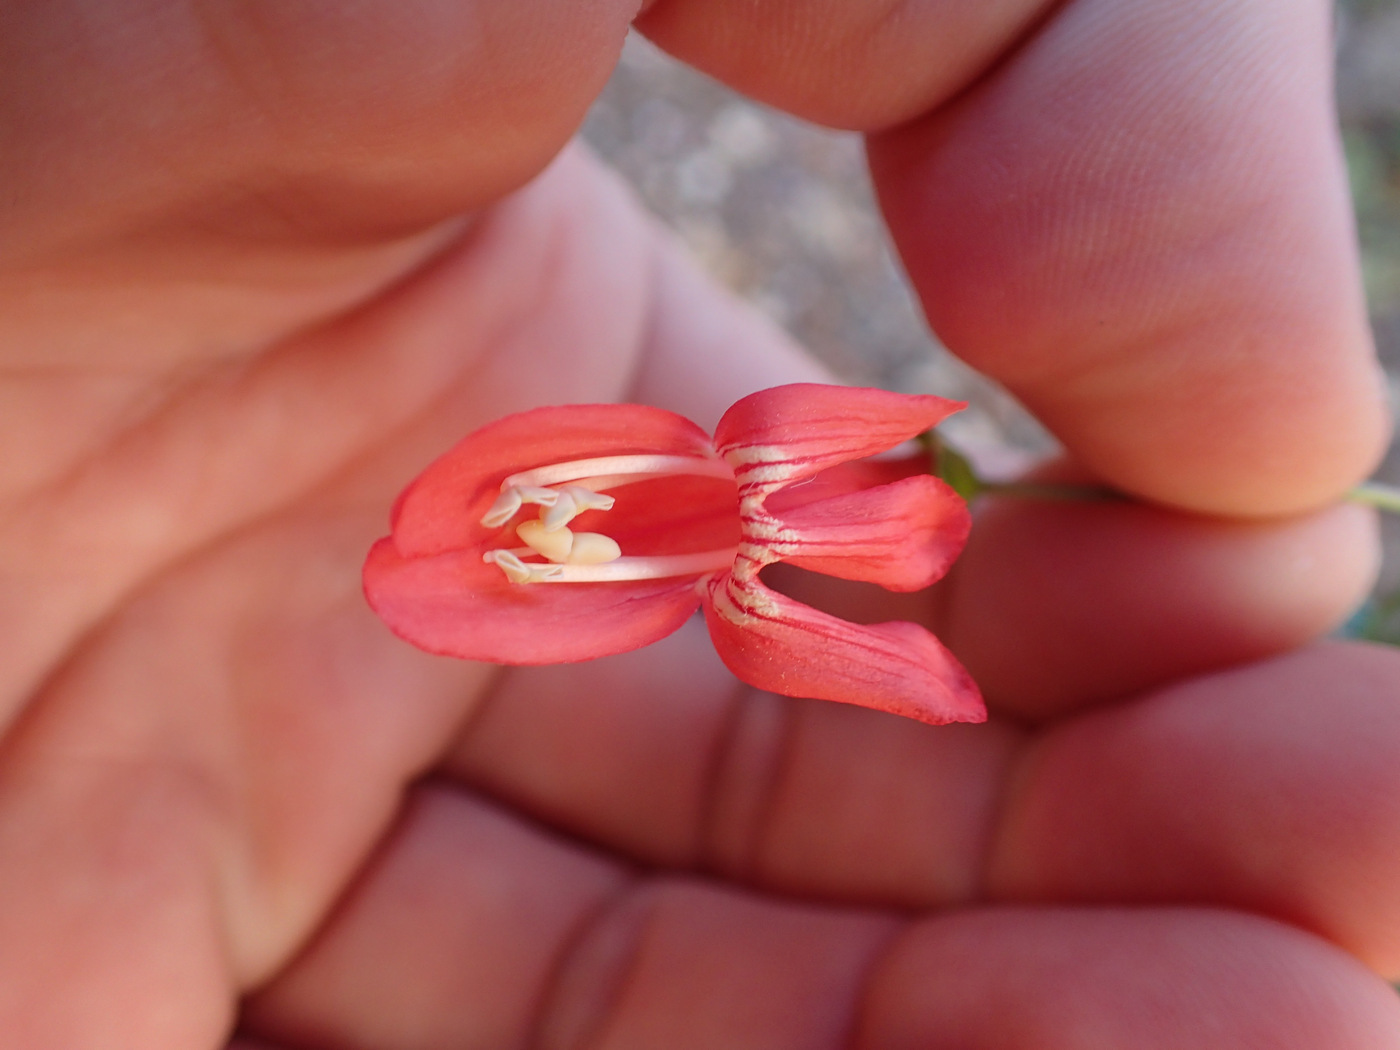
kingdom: Plantae
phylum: Tracheophyta
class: Magnoliopsida
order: Lamiales
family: Plantaginaceae
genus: Penstemon
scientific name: Penstemon barbatus
